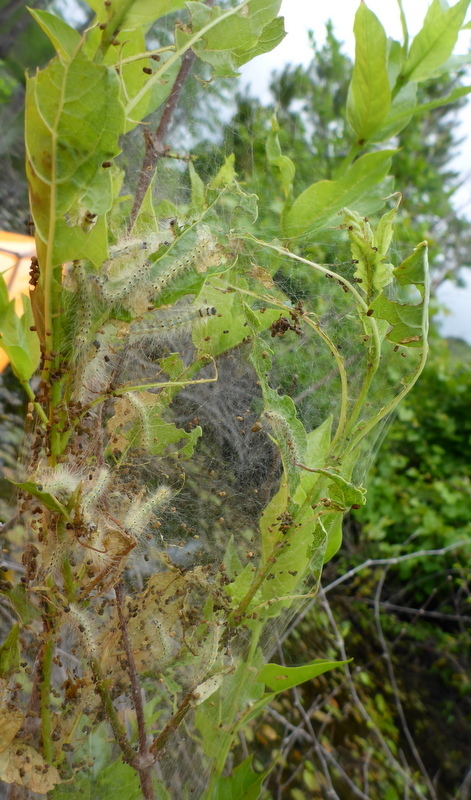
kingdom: Animalia
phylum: Arthropoda
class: Insecta
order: Lepidoptera
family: Erebidae
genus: Hyphantria
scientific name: Hyphantria cunea
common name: American white moth
